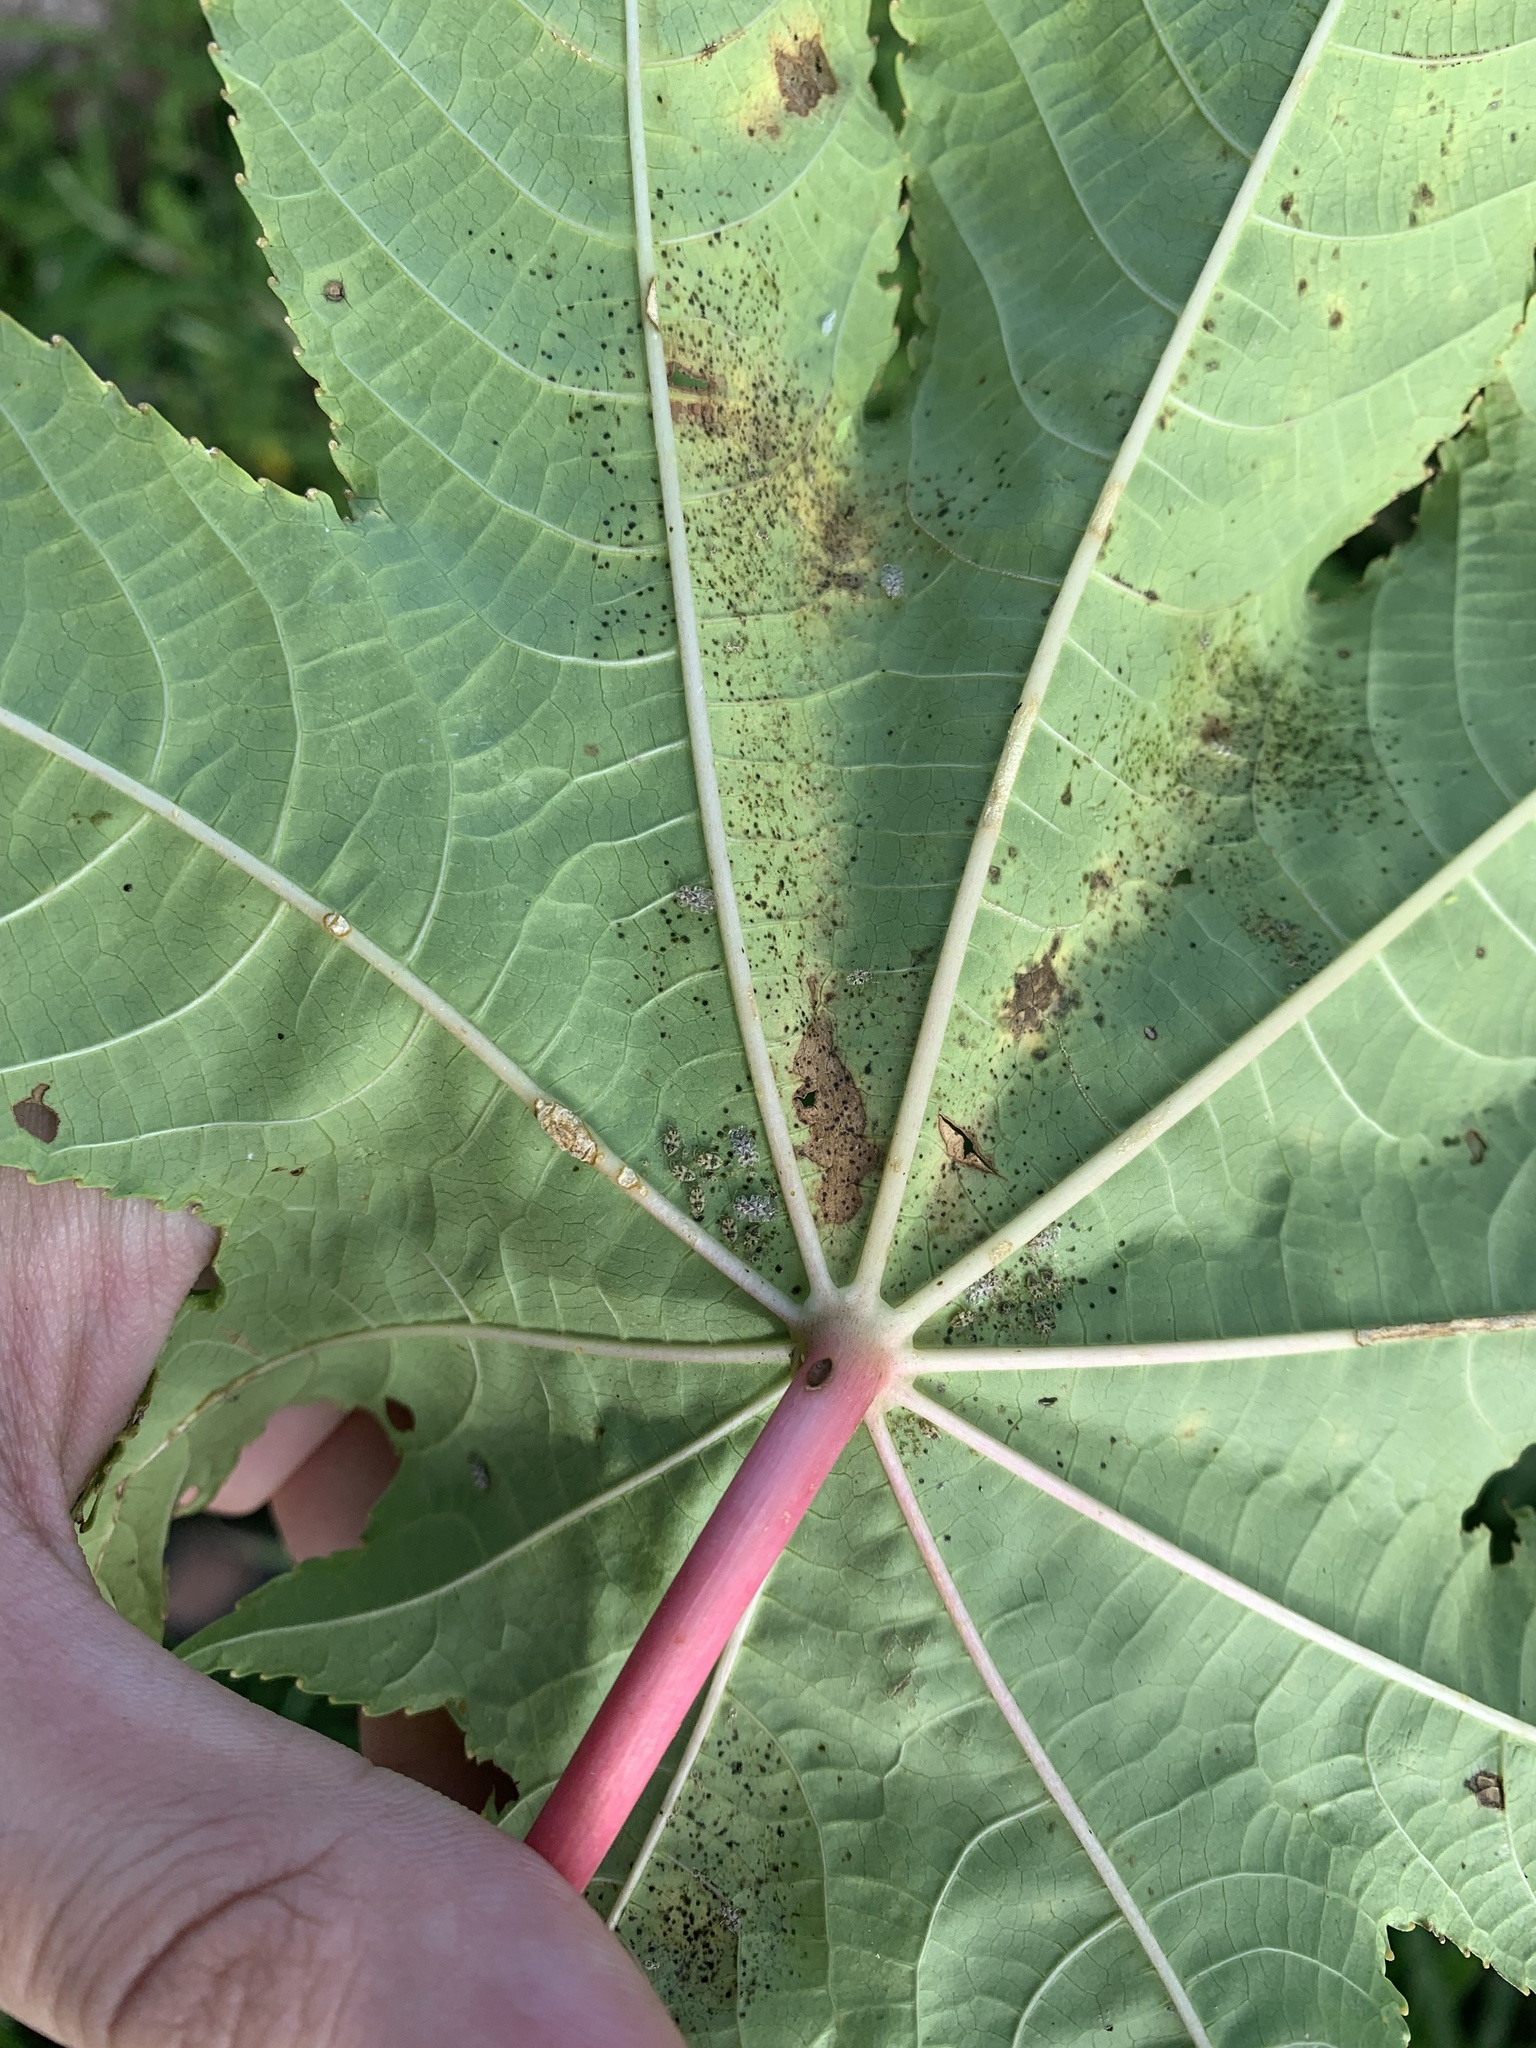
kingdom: Animalia
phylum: Arthropoda
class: Insecta
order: Hemiptera
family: Tingidae
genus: Corythucha
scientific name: Corythucha gossypii
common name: Cotton lace bug
